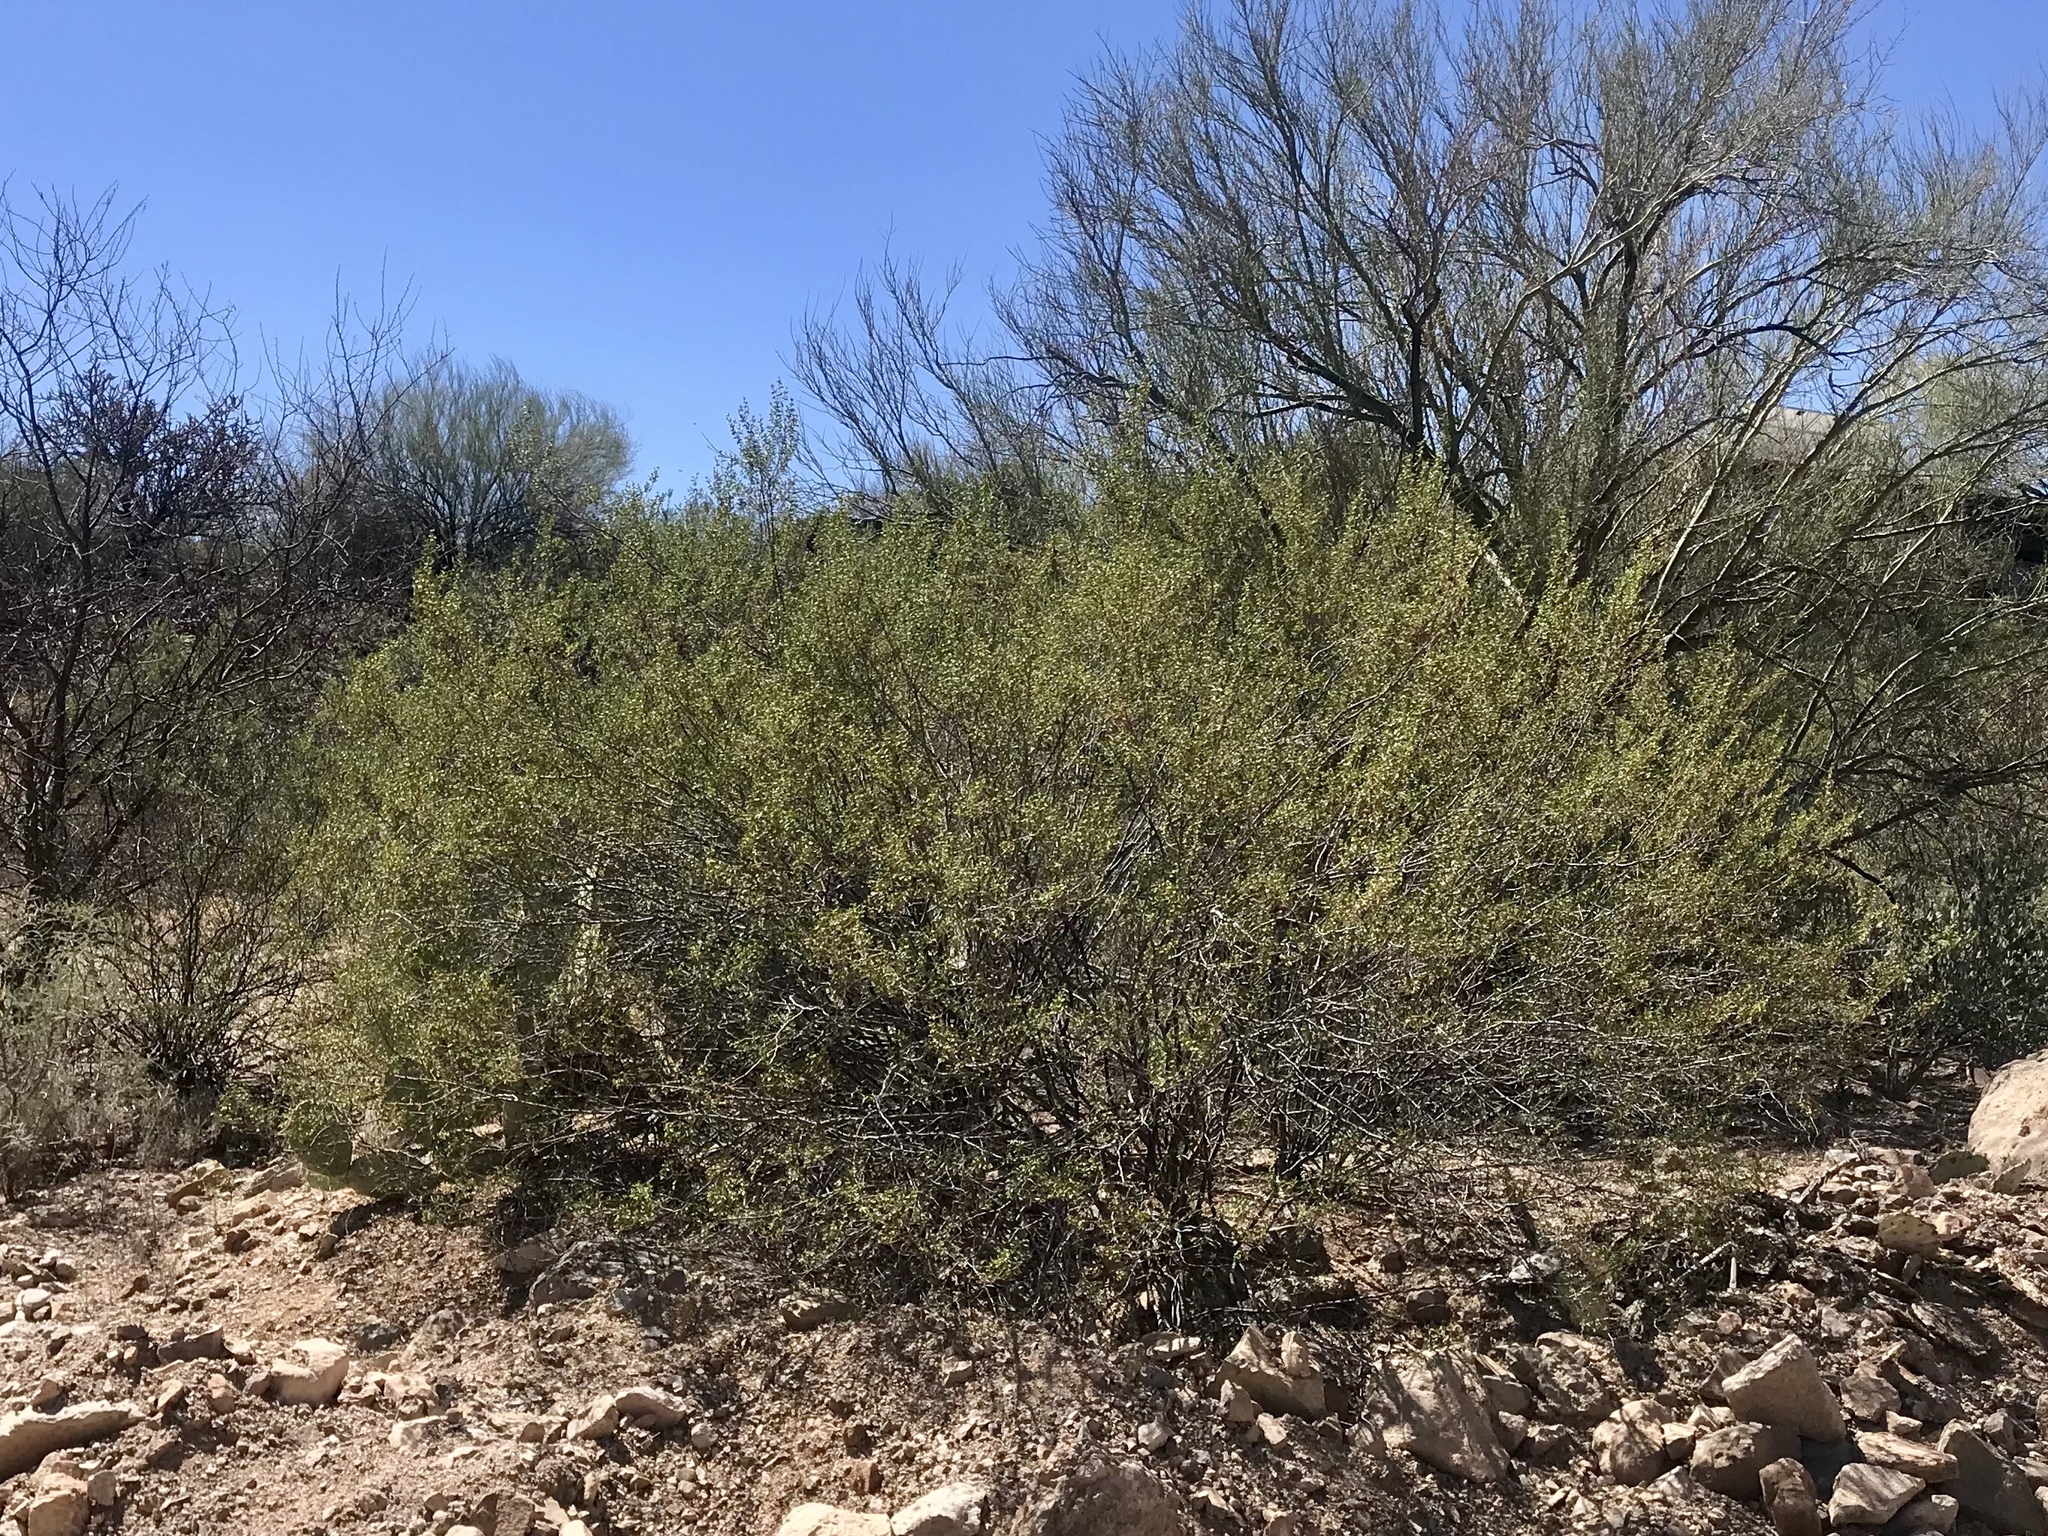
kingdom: Plantae
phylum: Tracheophyta
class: Magnoliopsida
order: Zygophyllales
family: Zygophyllaceae
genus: Larrea
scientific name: Larrea tridentata
